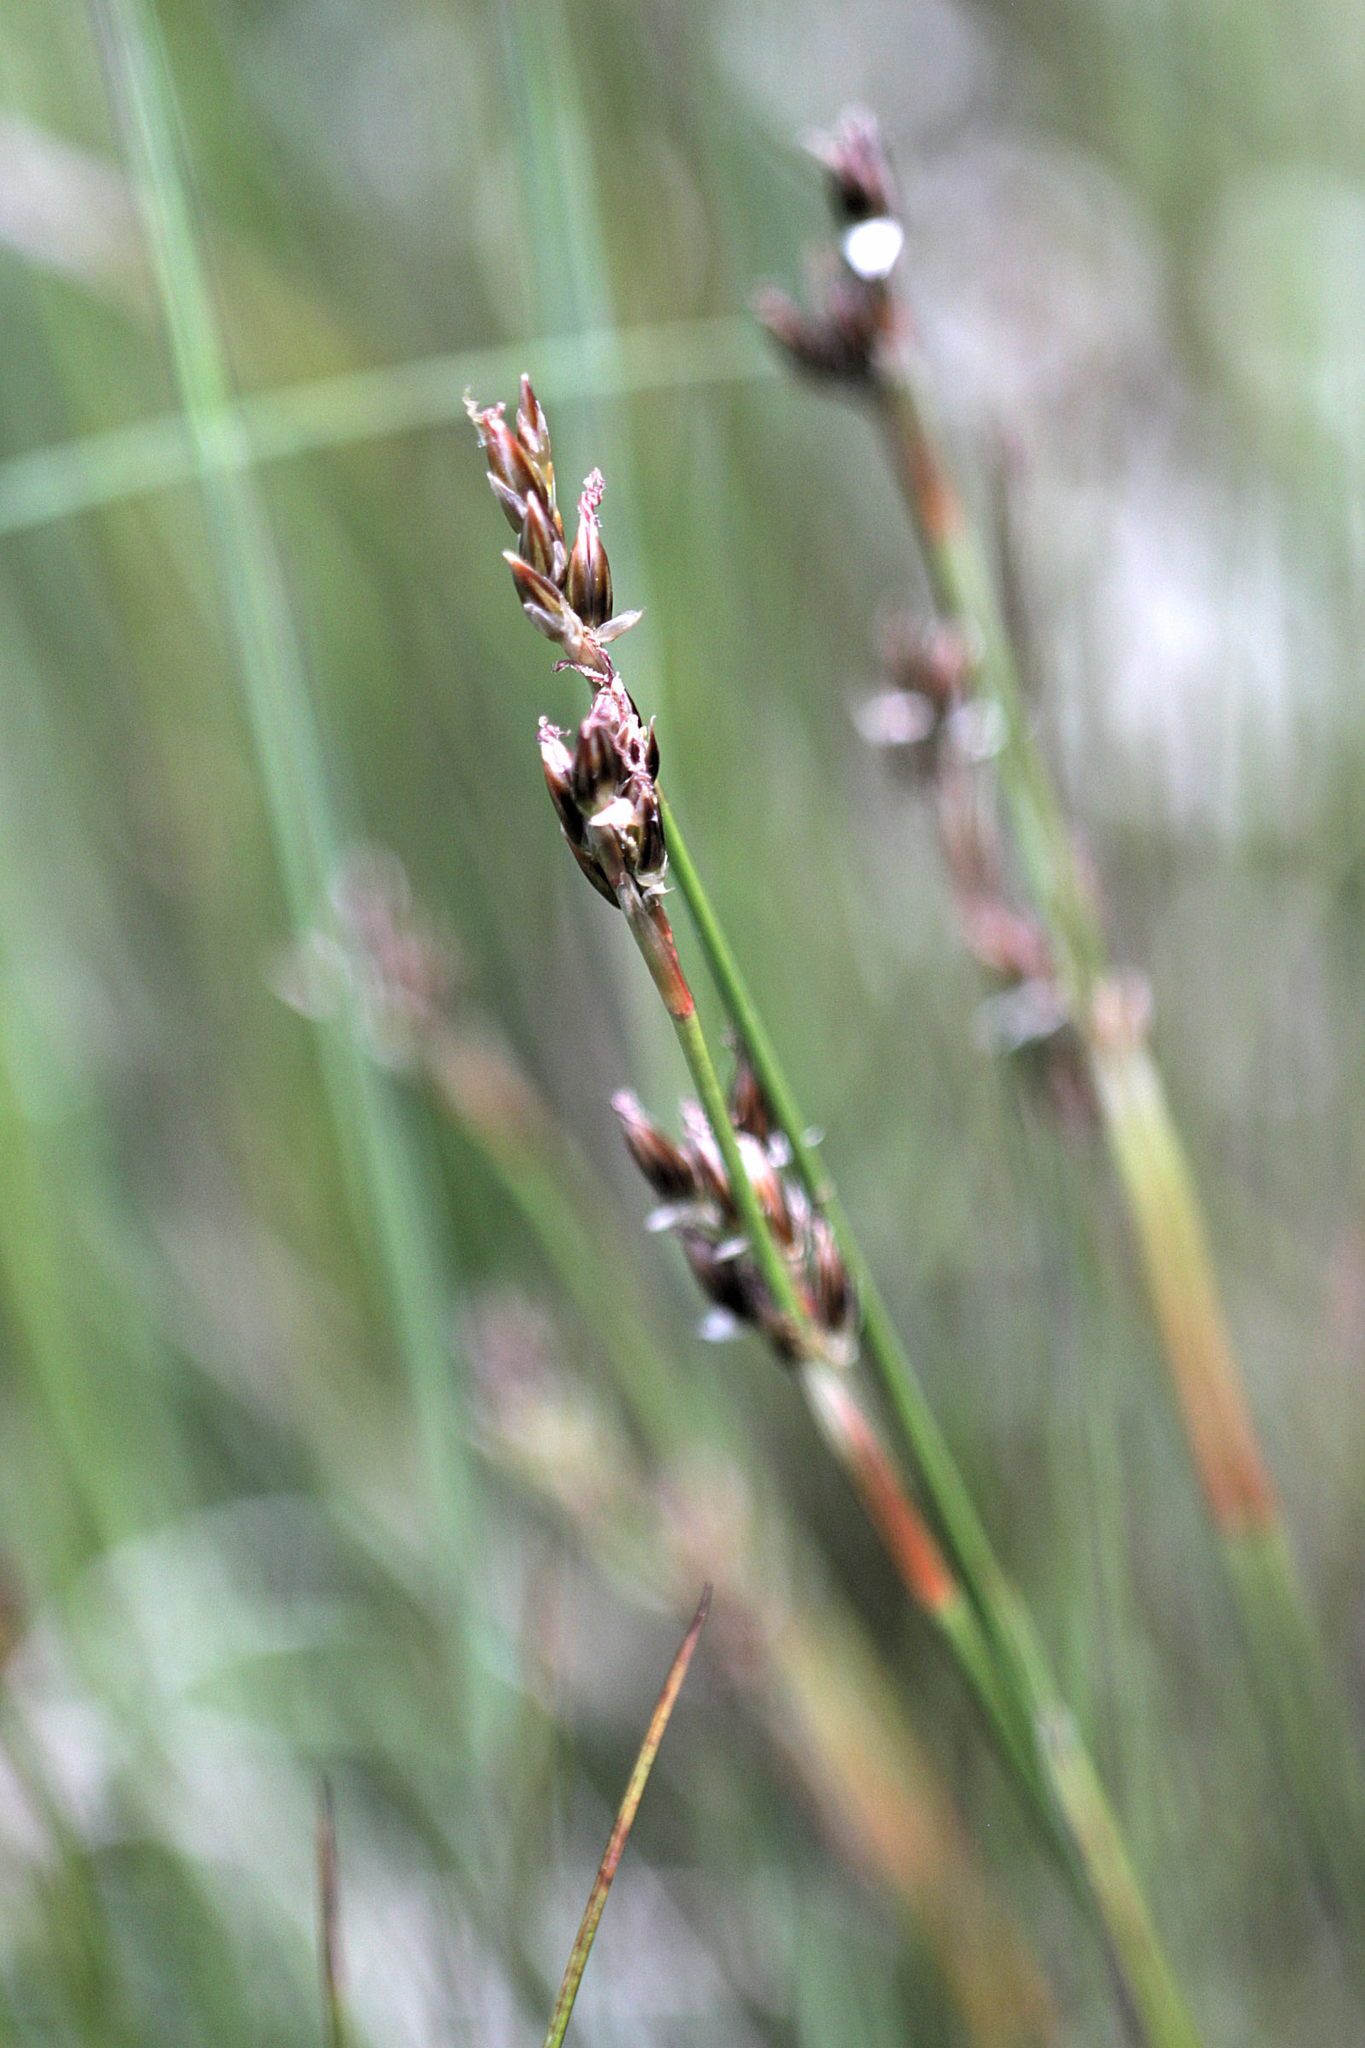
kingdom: Plantae
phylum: Tracheophyta
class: Liliopsida
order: Poales
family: Juncaceae
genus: Juncus
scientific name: Juncus squarrosus
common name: Heath rush
